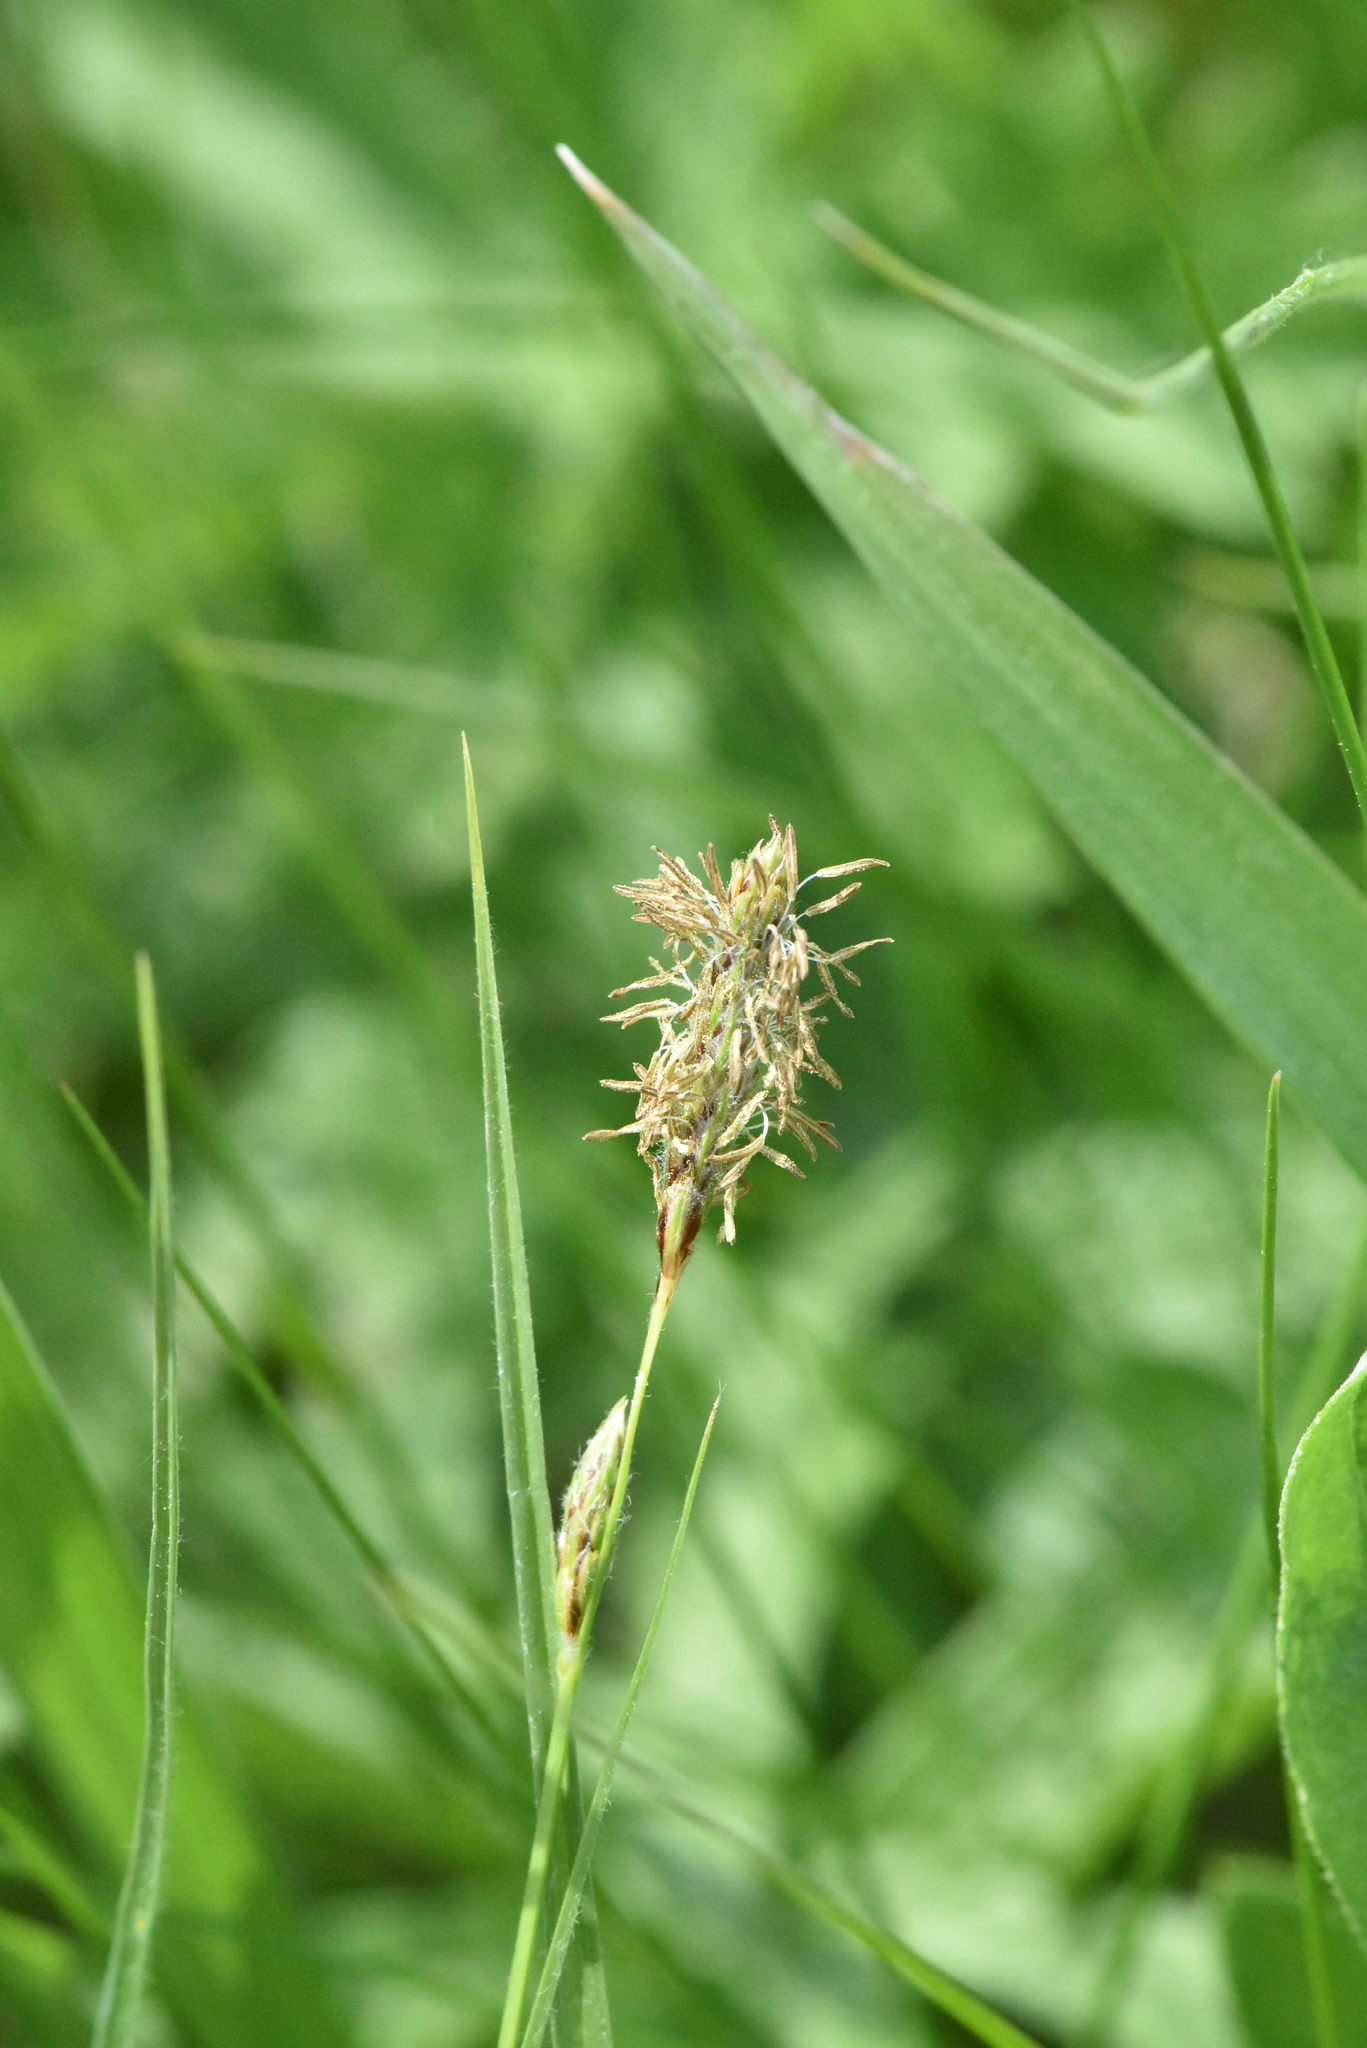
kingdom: Plantae
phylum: Tracheophyta
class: Liliopsida
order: Poales
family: Cyperaceae
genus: Carex
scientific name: Carex hirta
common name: Hairy sedge
